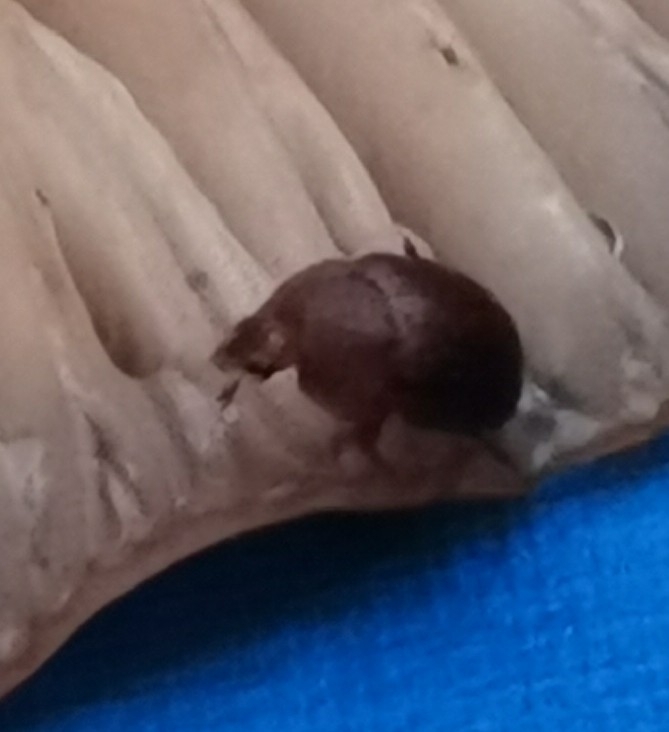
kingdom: Animalia
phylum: Arthropoda
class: Insecta
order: Coleoptera
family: Nitidulidae
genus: Cychramus
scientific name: Cychramus luteus
